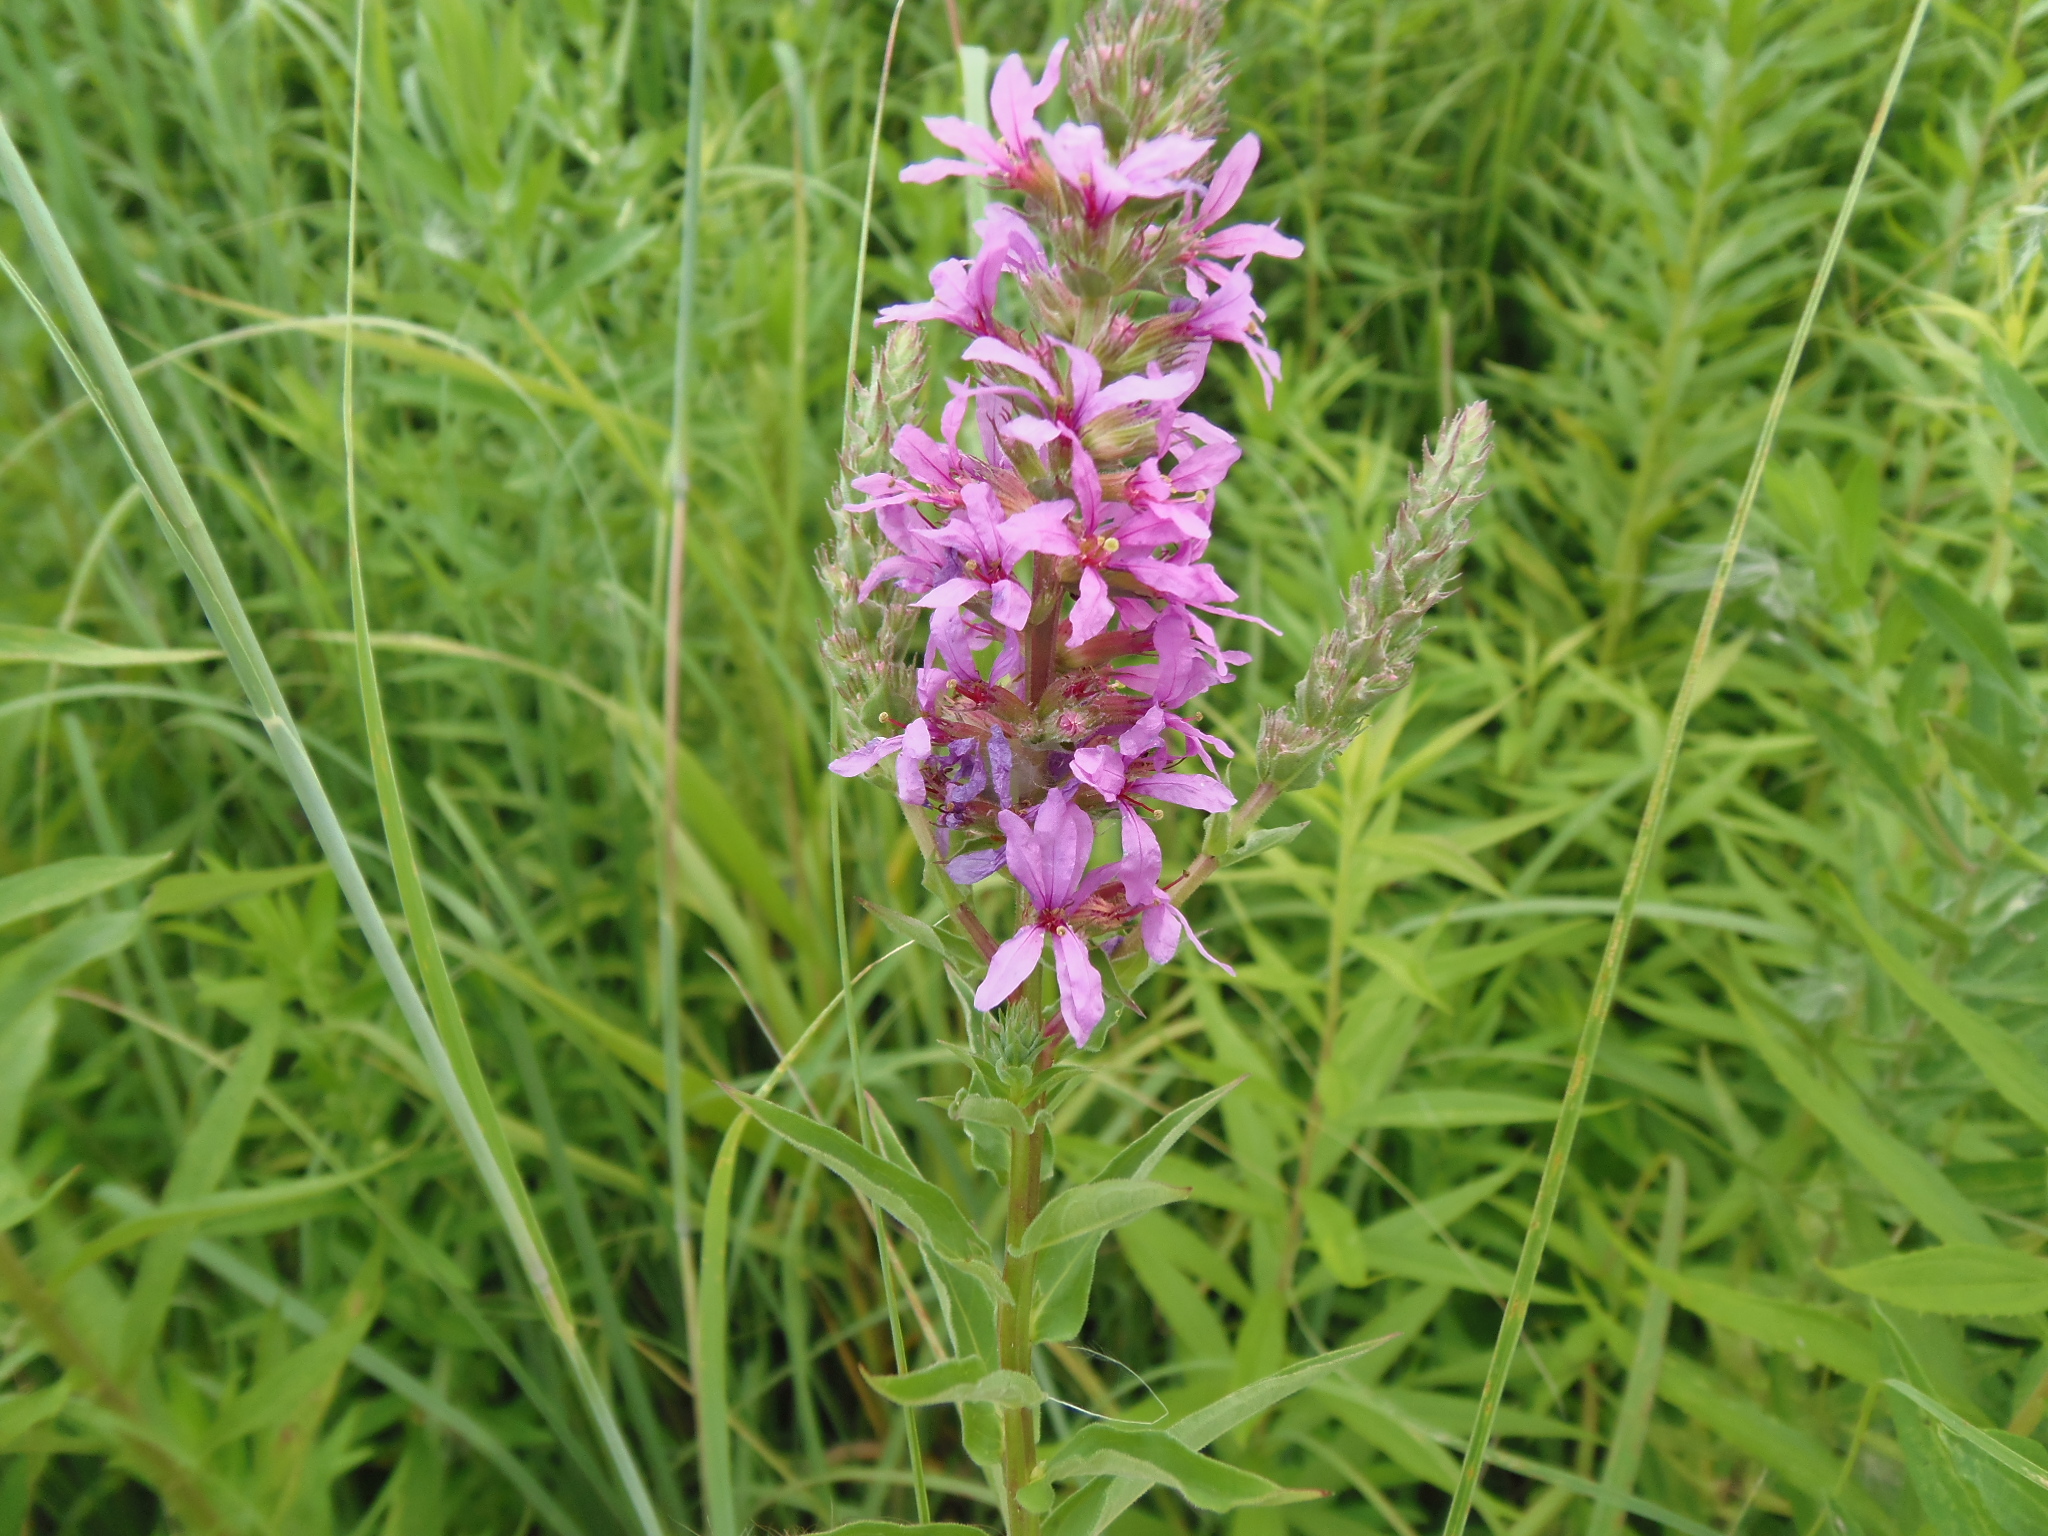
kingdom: Plantae
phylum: Tracheophyta
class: Magnoliopsida
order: Myrtales
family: Lythraceae
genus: Lythrum
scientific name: Lythrum salicaria
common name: Purple loosestrife
